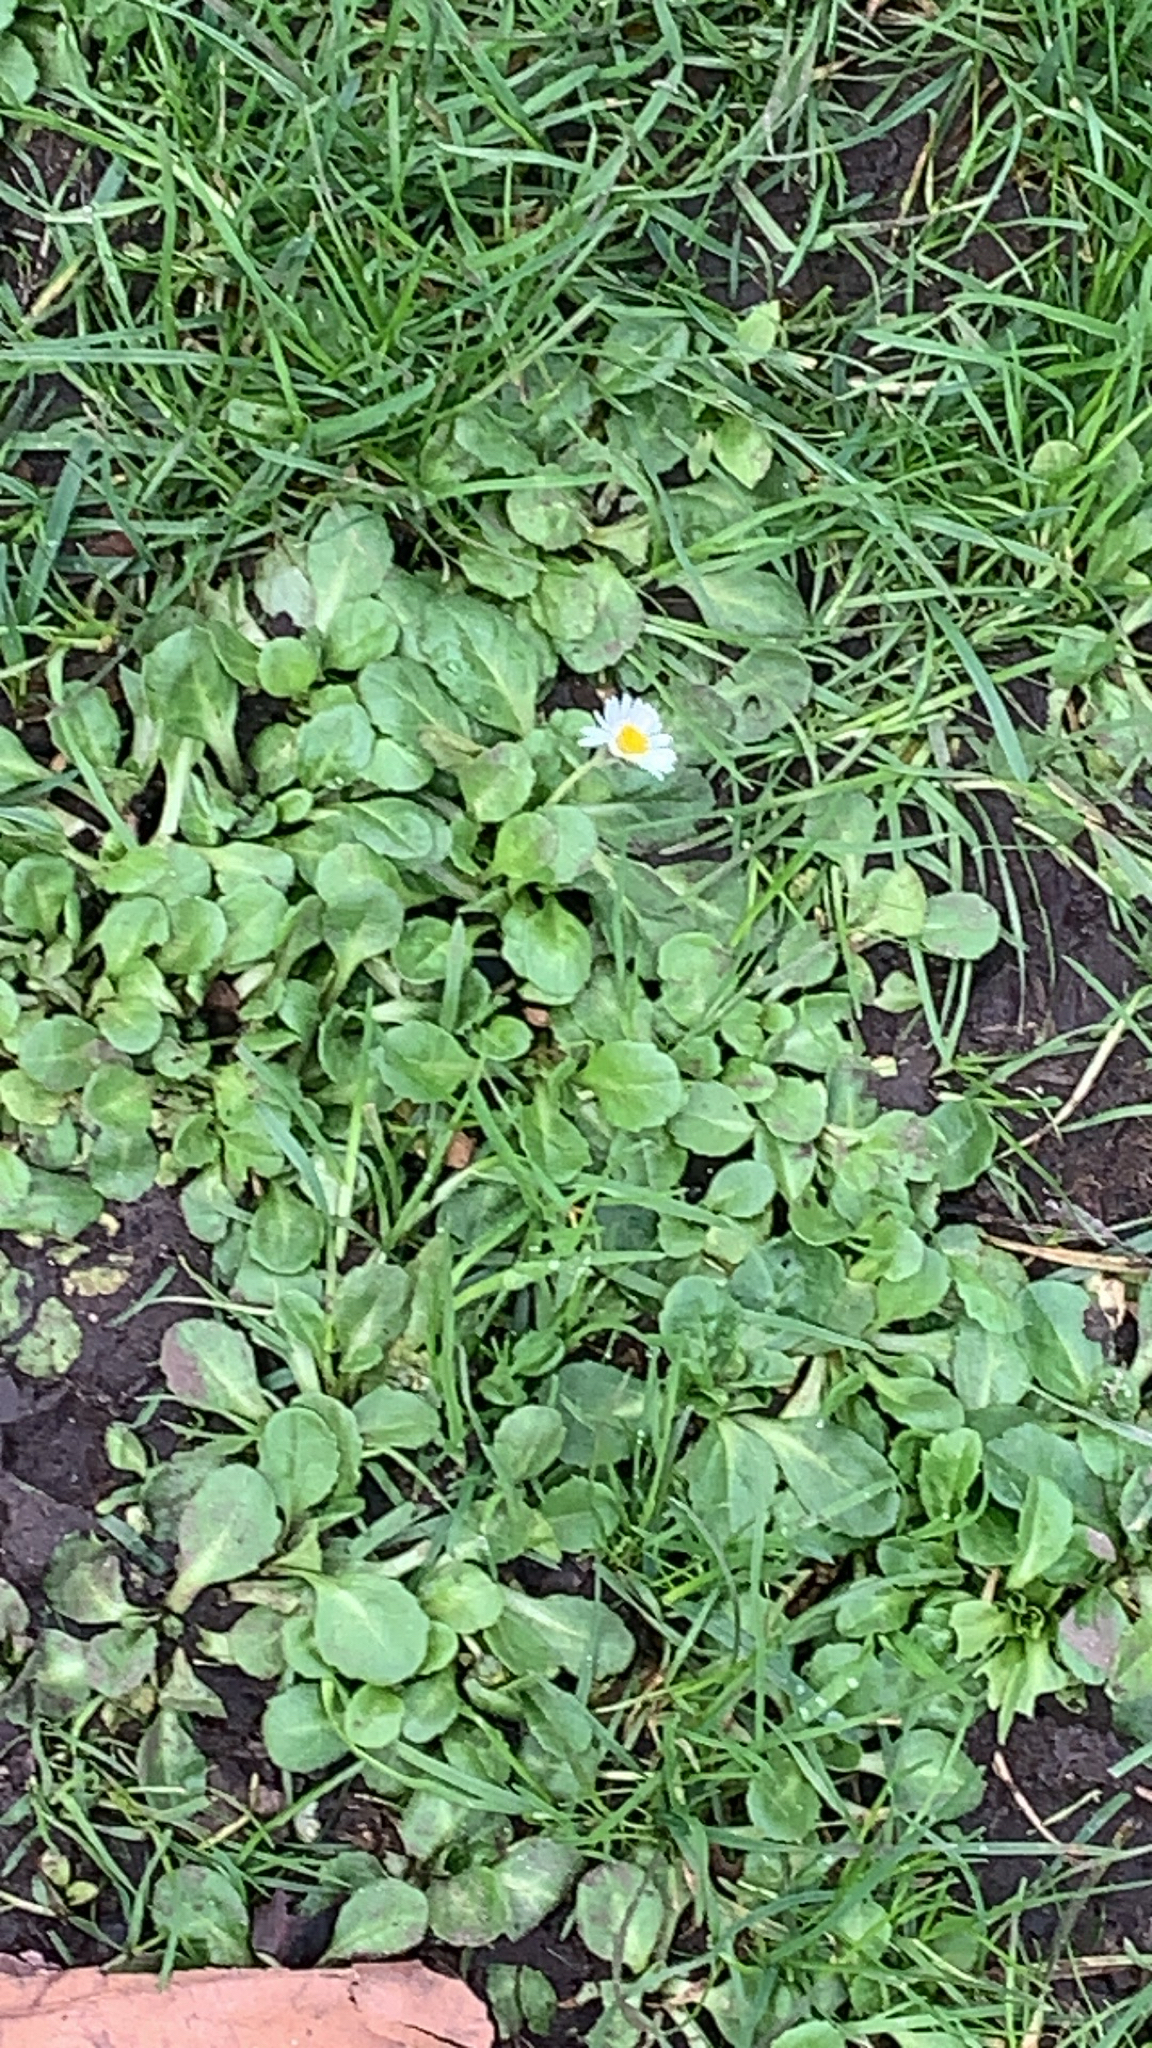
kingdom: Plantae
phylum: Tracheophyta
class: Magnoliopsida
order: Asterales
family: Asteraceae
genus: Bellis
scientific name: Bellis perennis
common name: Lawndaisy
